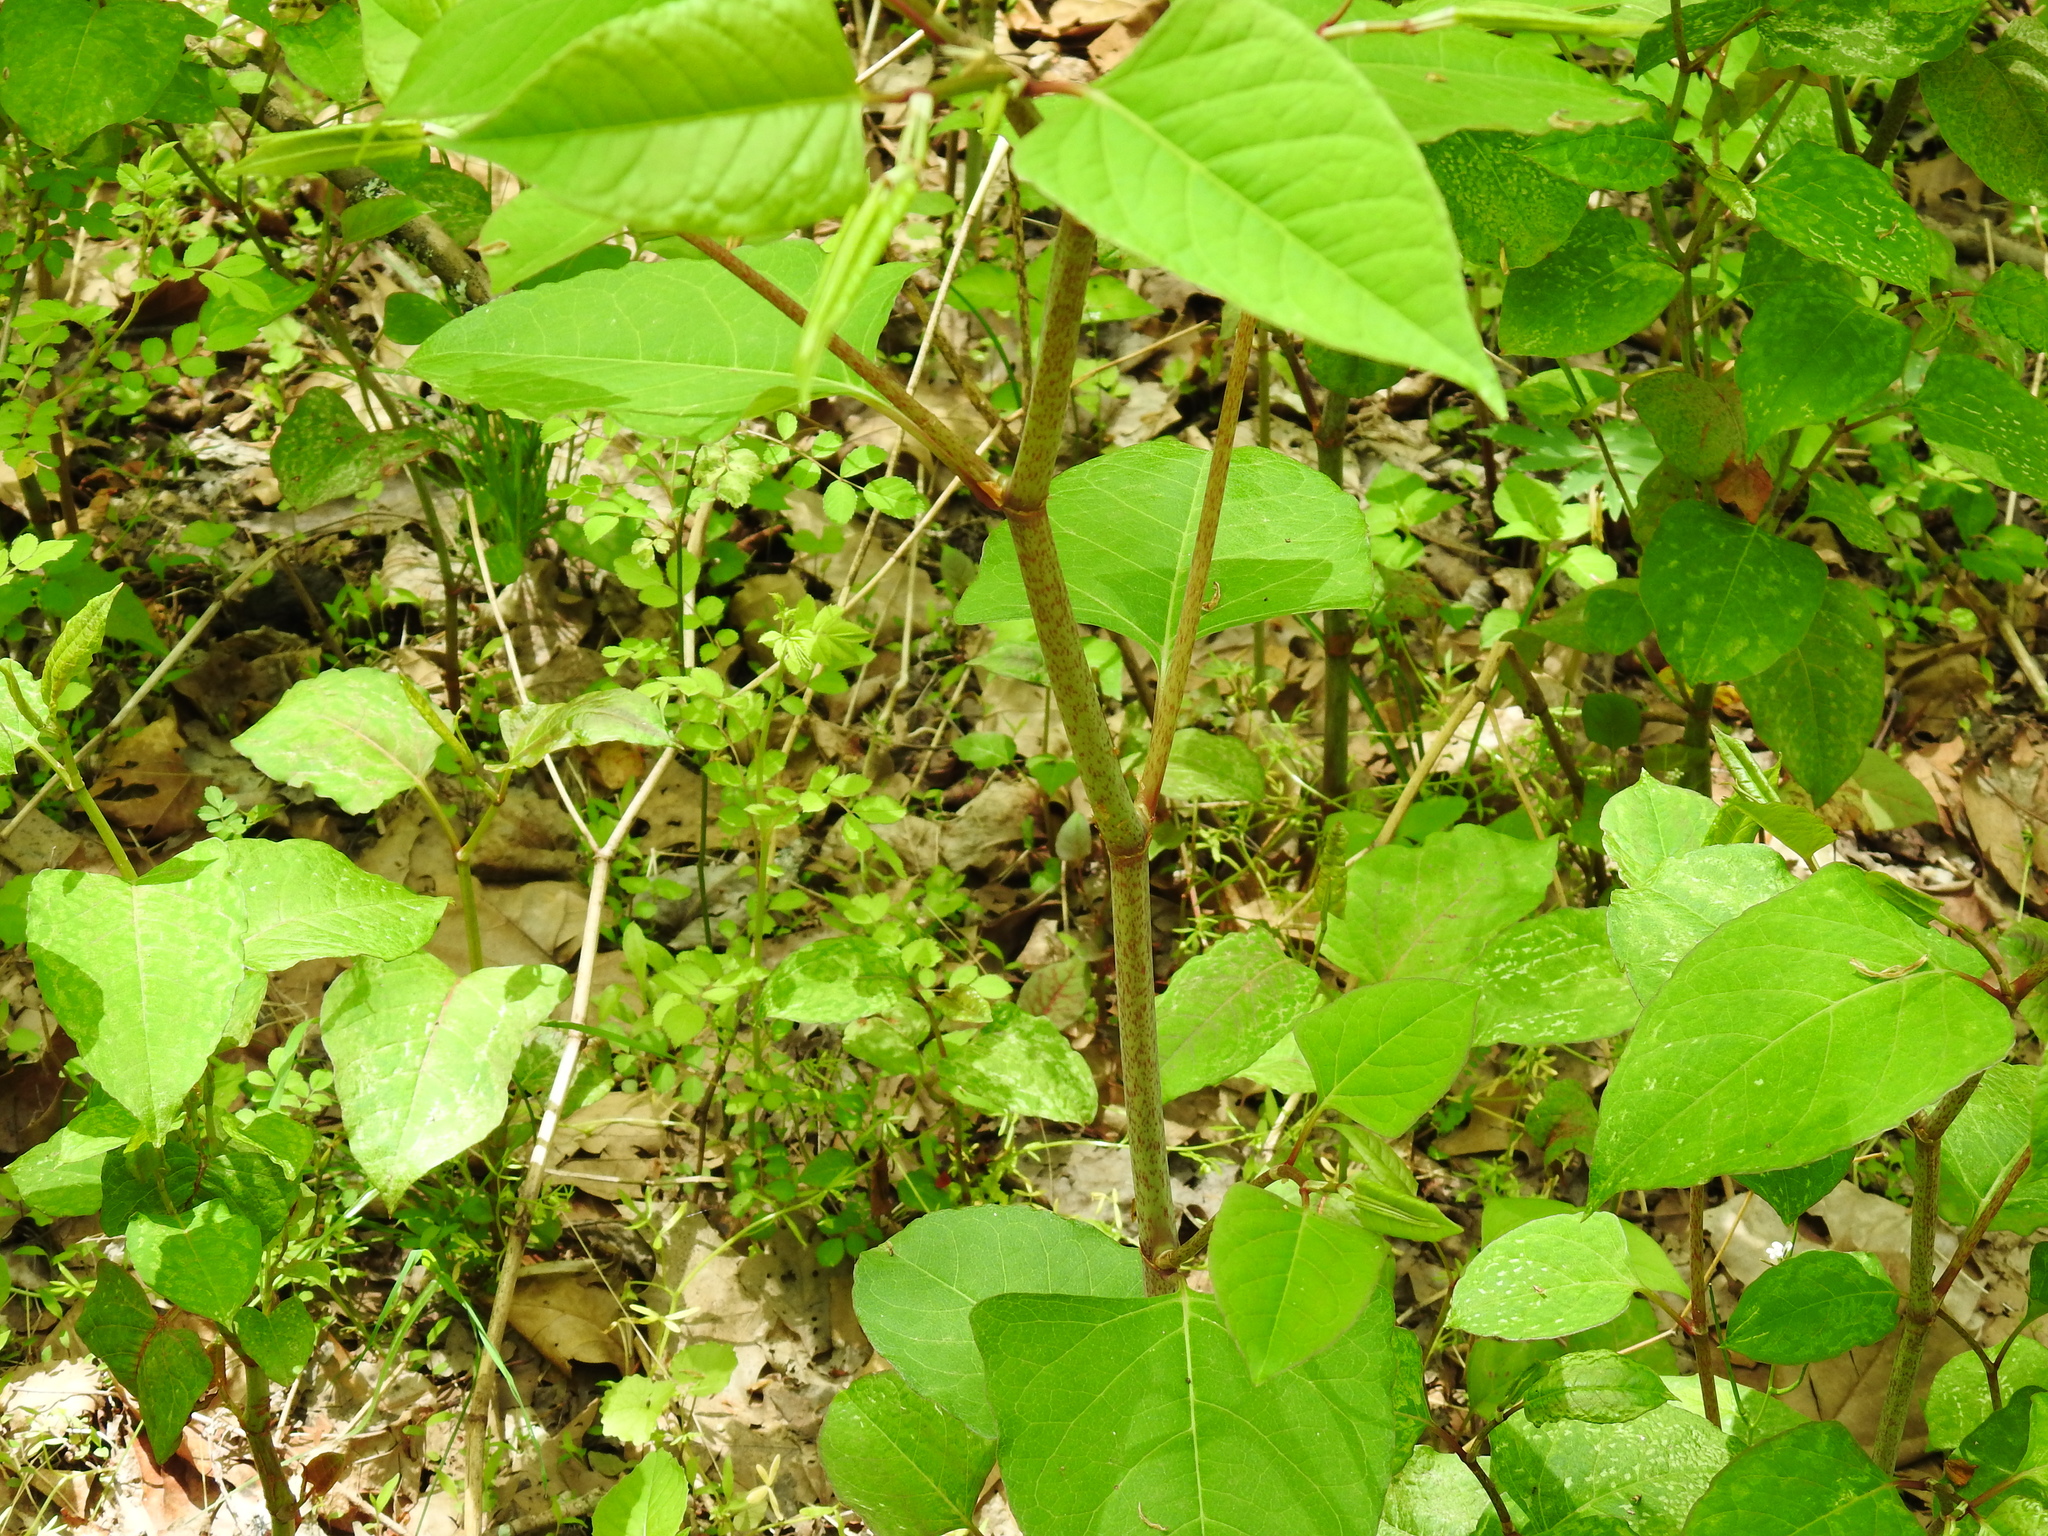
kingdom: Plantae
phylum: Tracheophyta
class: Magnoliopsida
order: Caryophyllales
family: Polygonaceae
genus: Reynoutria
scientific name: Reynoutria japonica
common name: Japanese knotweed
